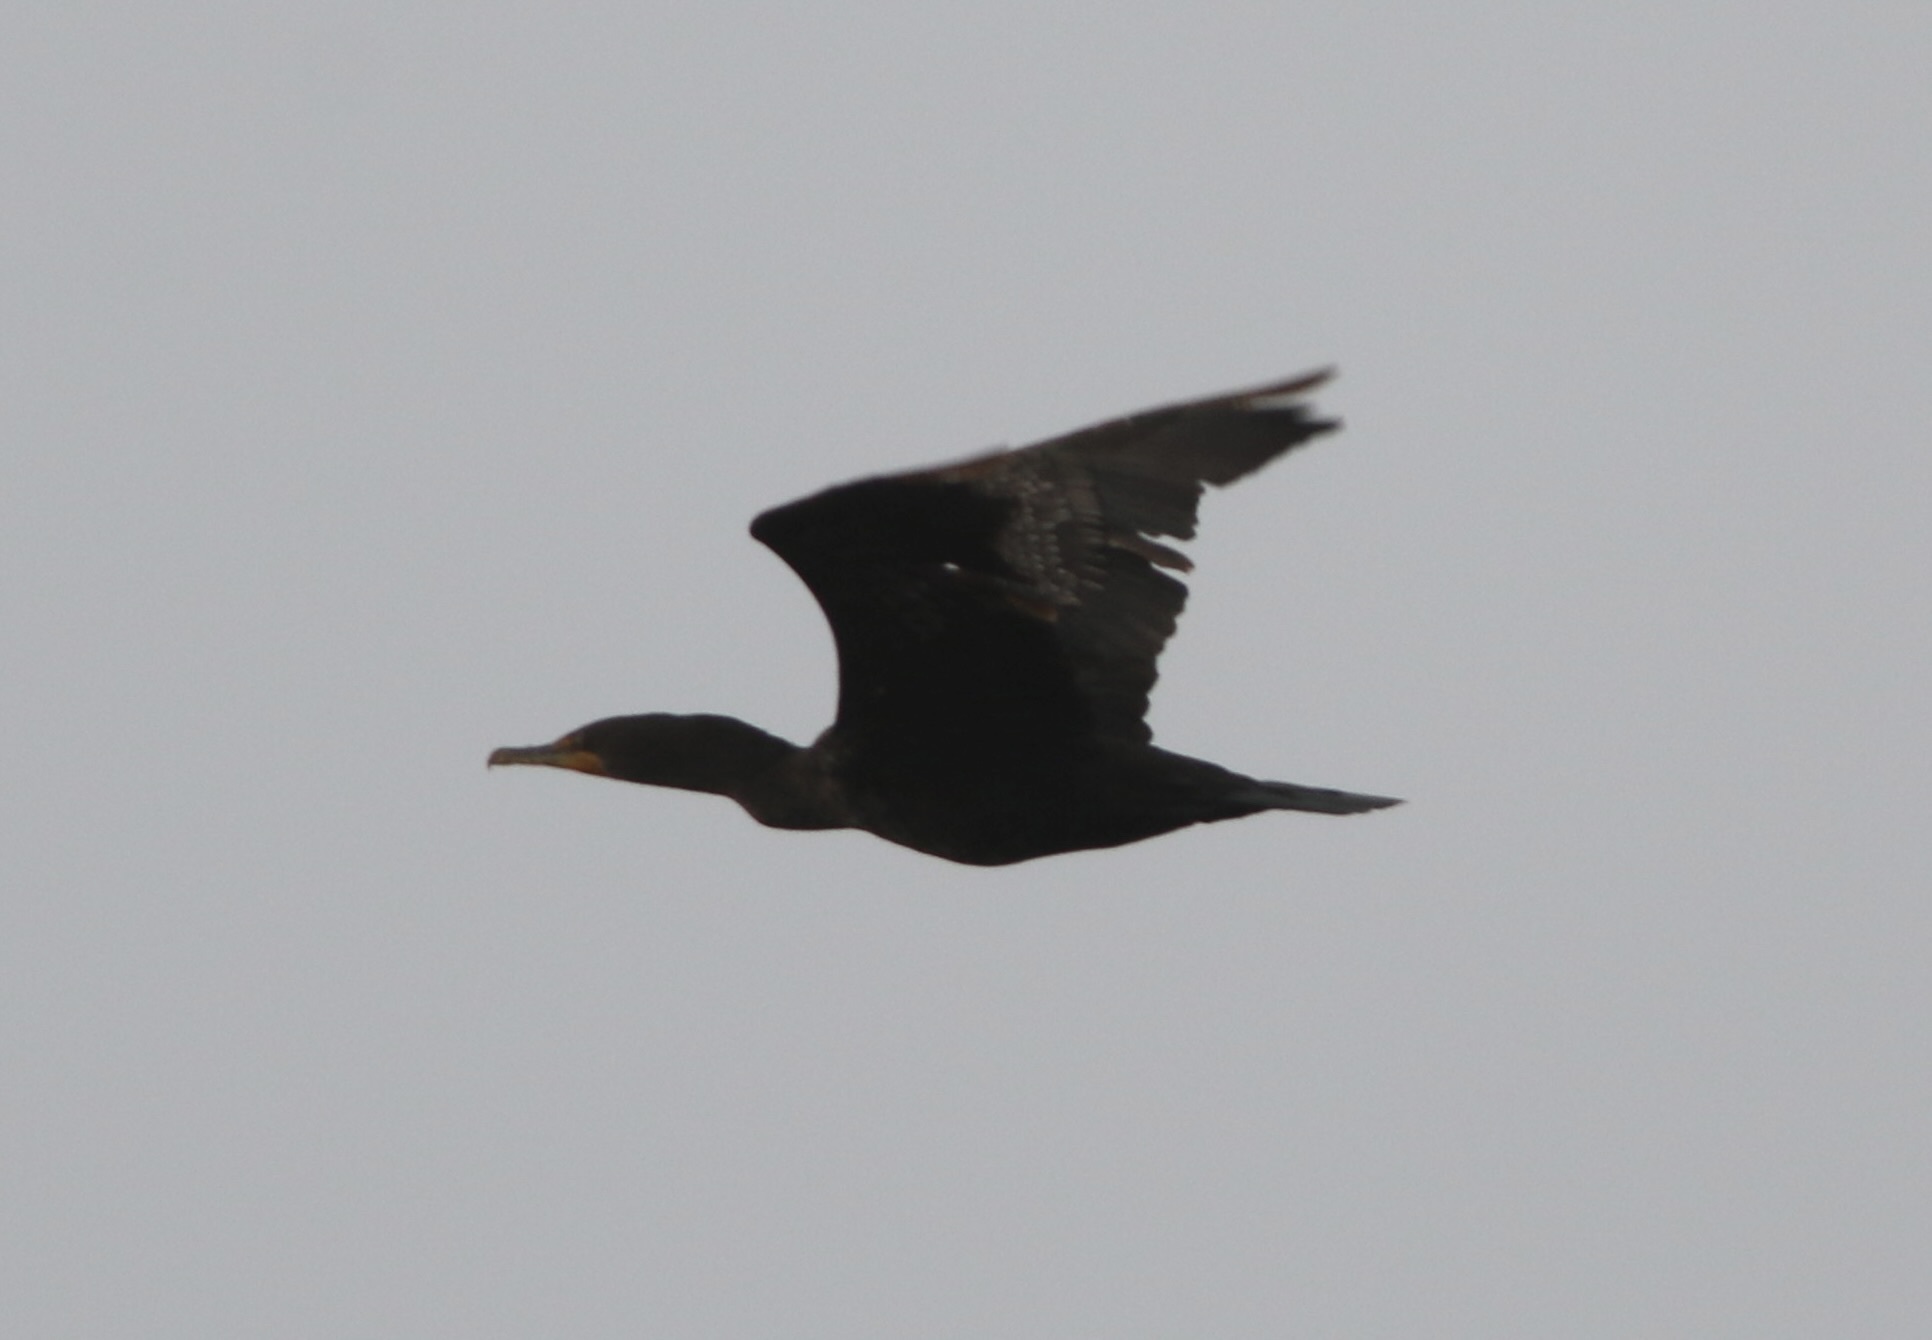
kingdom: Animalia
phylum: Chordata
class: Aves
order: Suliformes
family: Phalacrocoracidae
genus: Phalacrocorax
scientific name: Phalacrocorax auritus
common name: Double-crested cormorant
